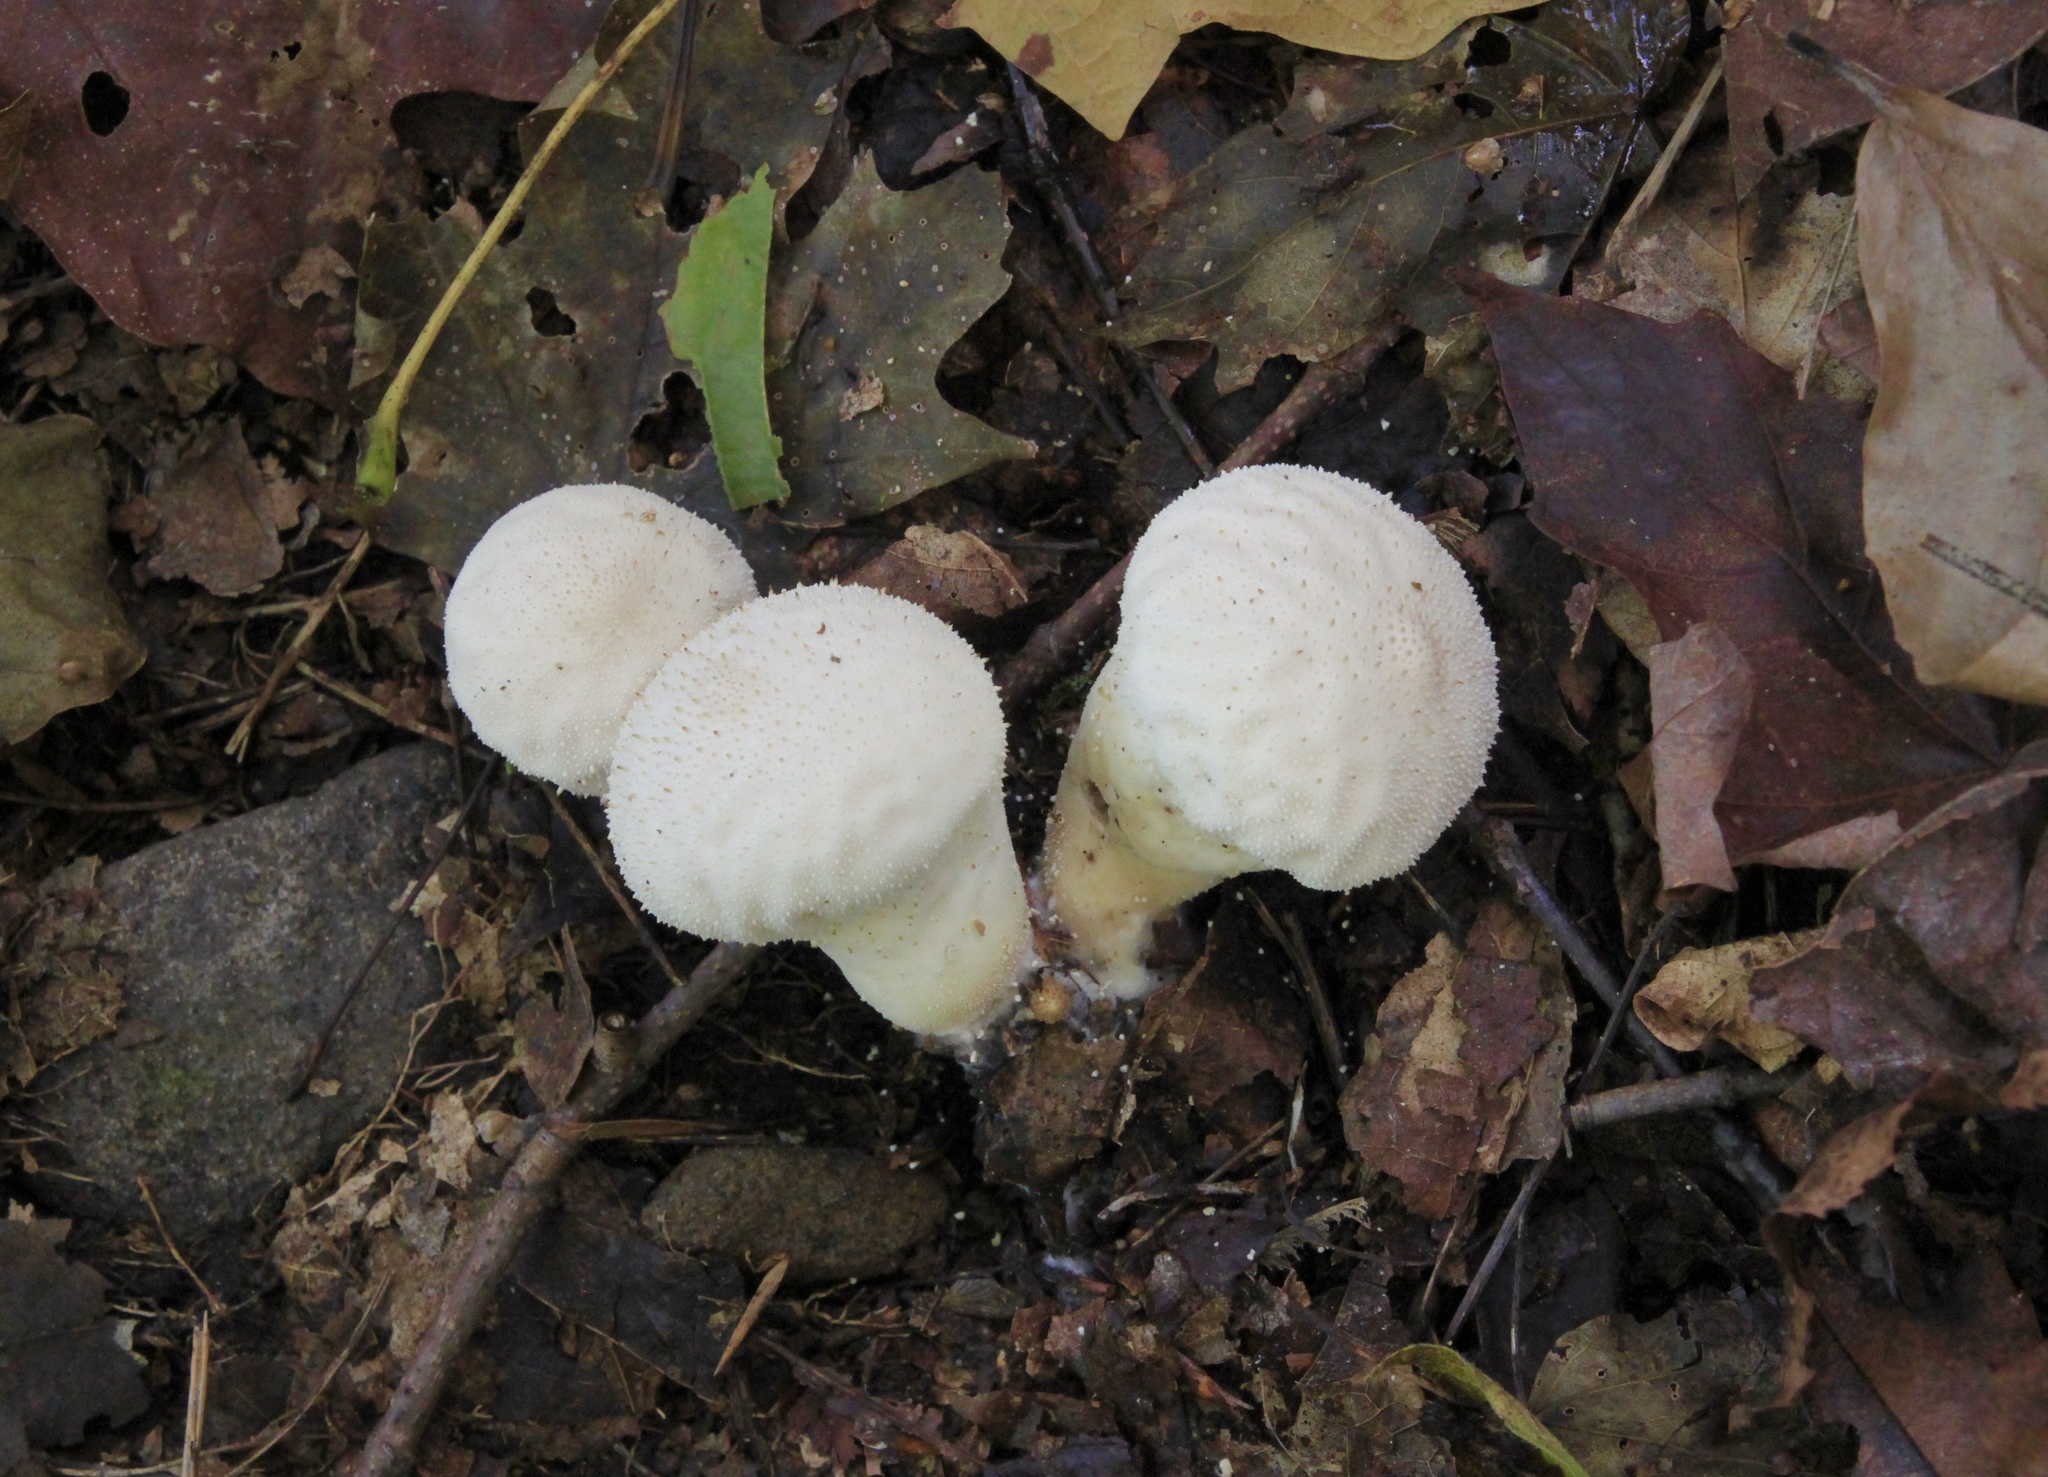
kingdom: Fungi
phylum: Basidiomycota
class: Agaricomycetes
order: Agaricales
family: Lycoperdaceae
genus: Lycoperdon
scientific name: Lycoperdon perlatum
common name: Common puffball
